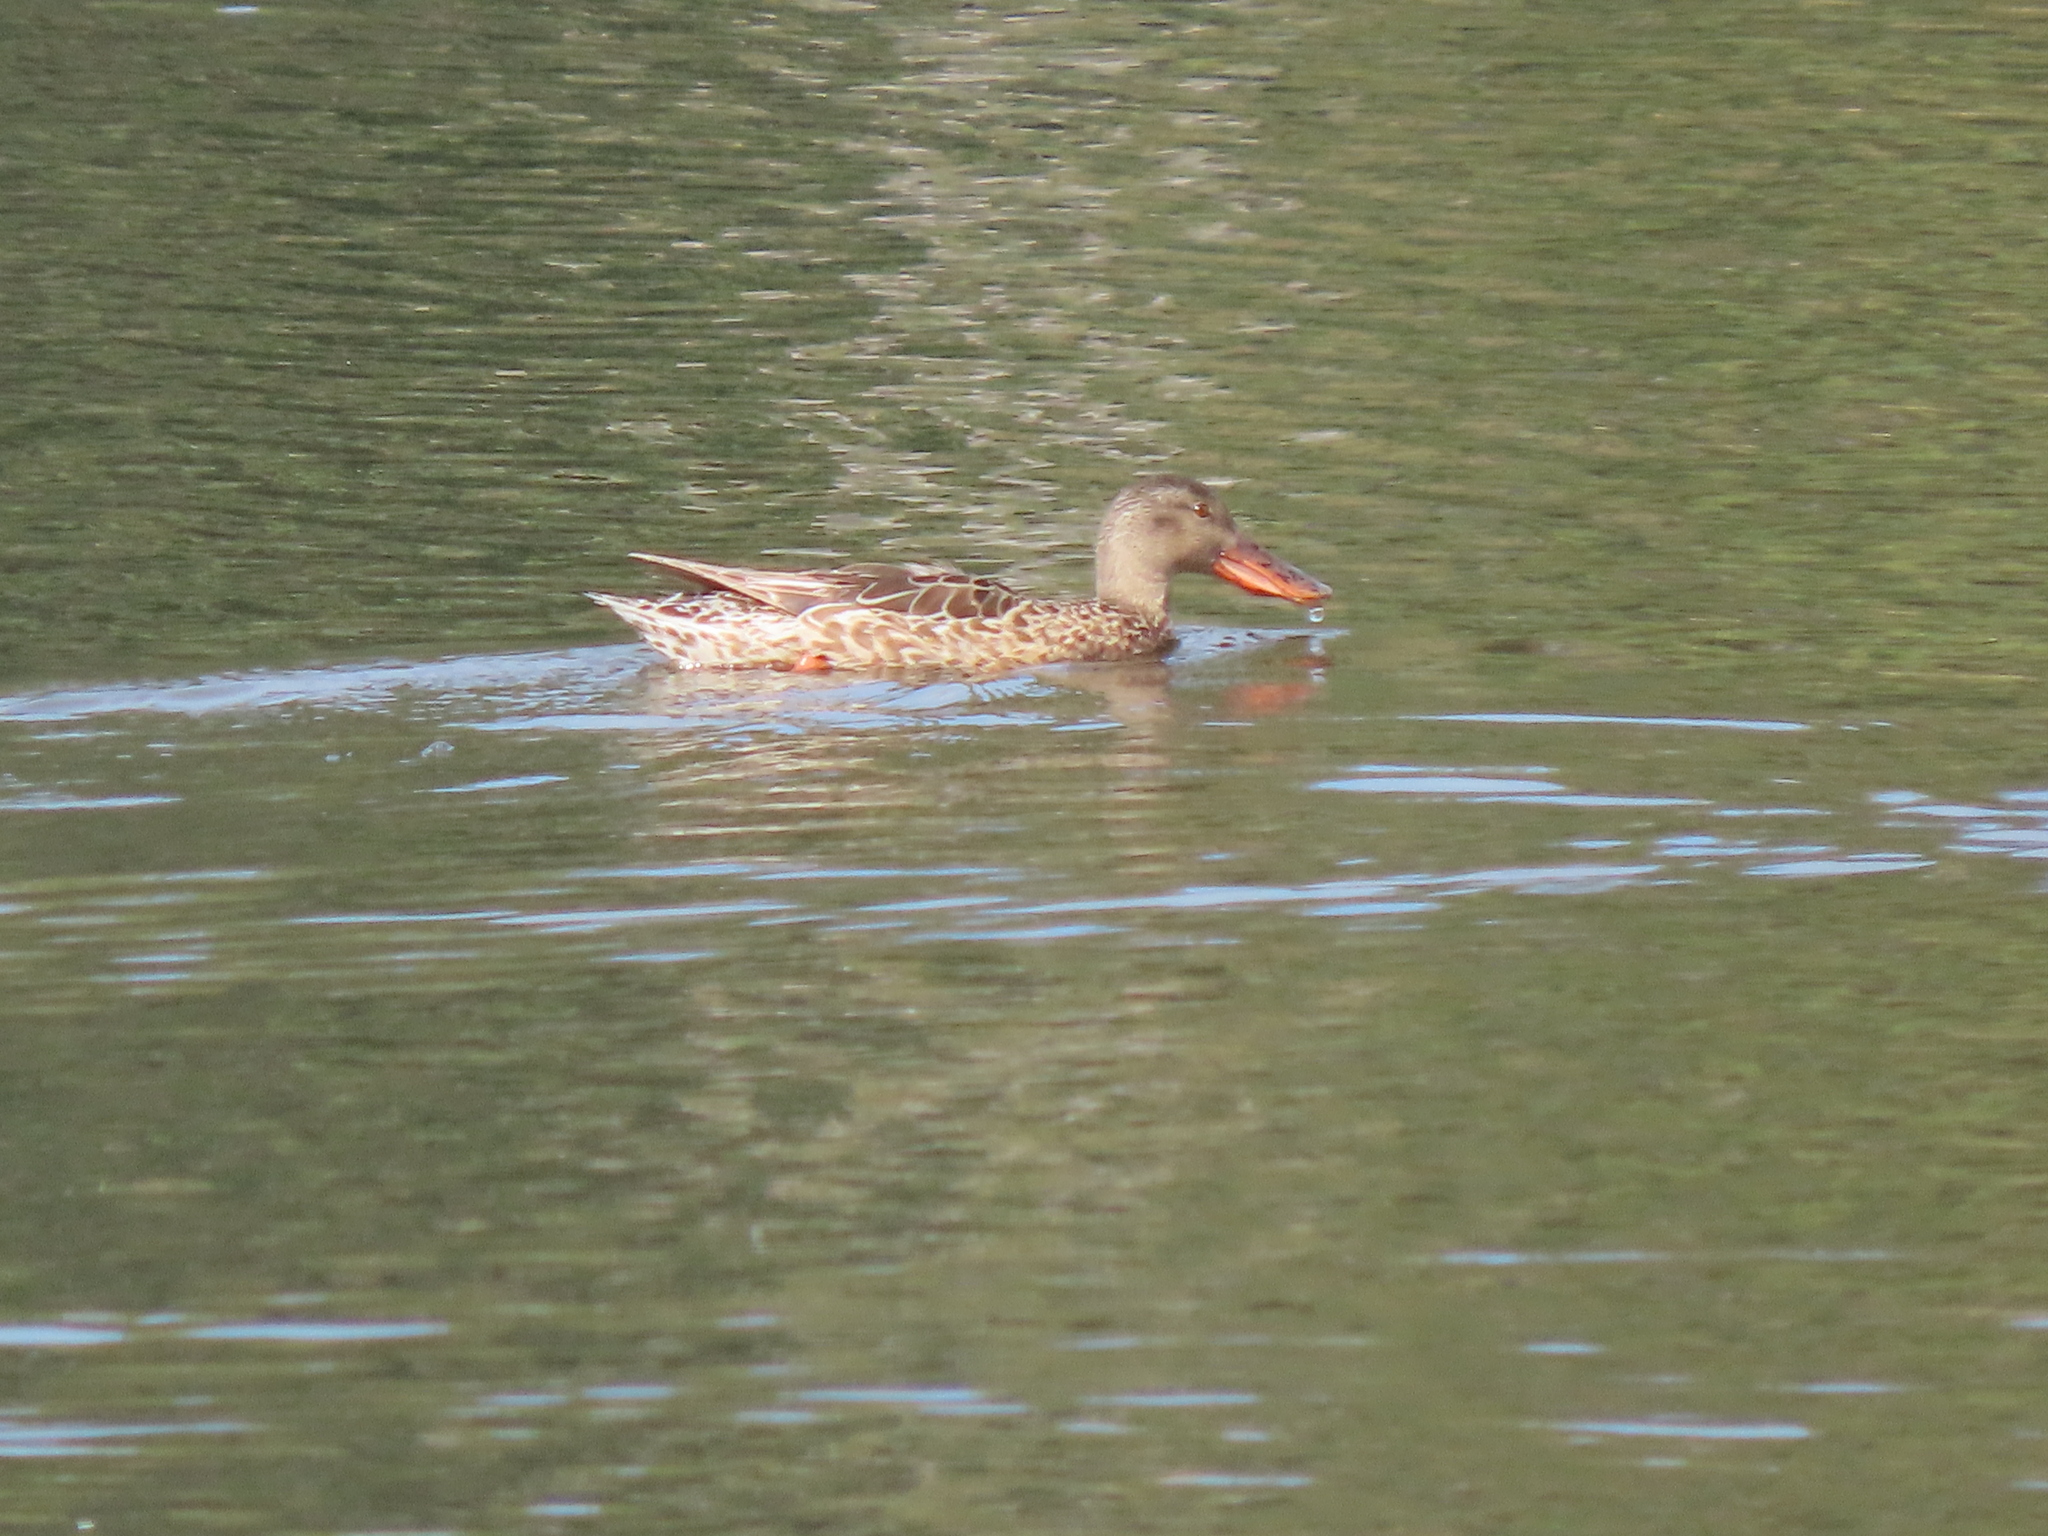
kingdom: Animalia
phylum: Chordata
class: Aves
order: Anseriformes
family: Anatidae
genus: Spatula
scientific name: Spatula clypeata
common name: Northern shoveler
